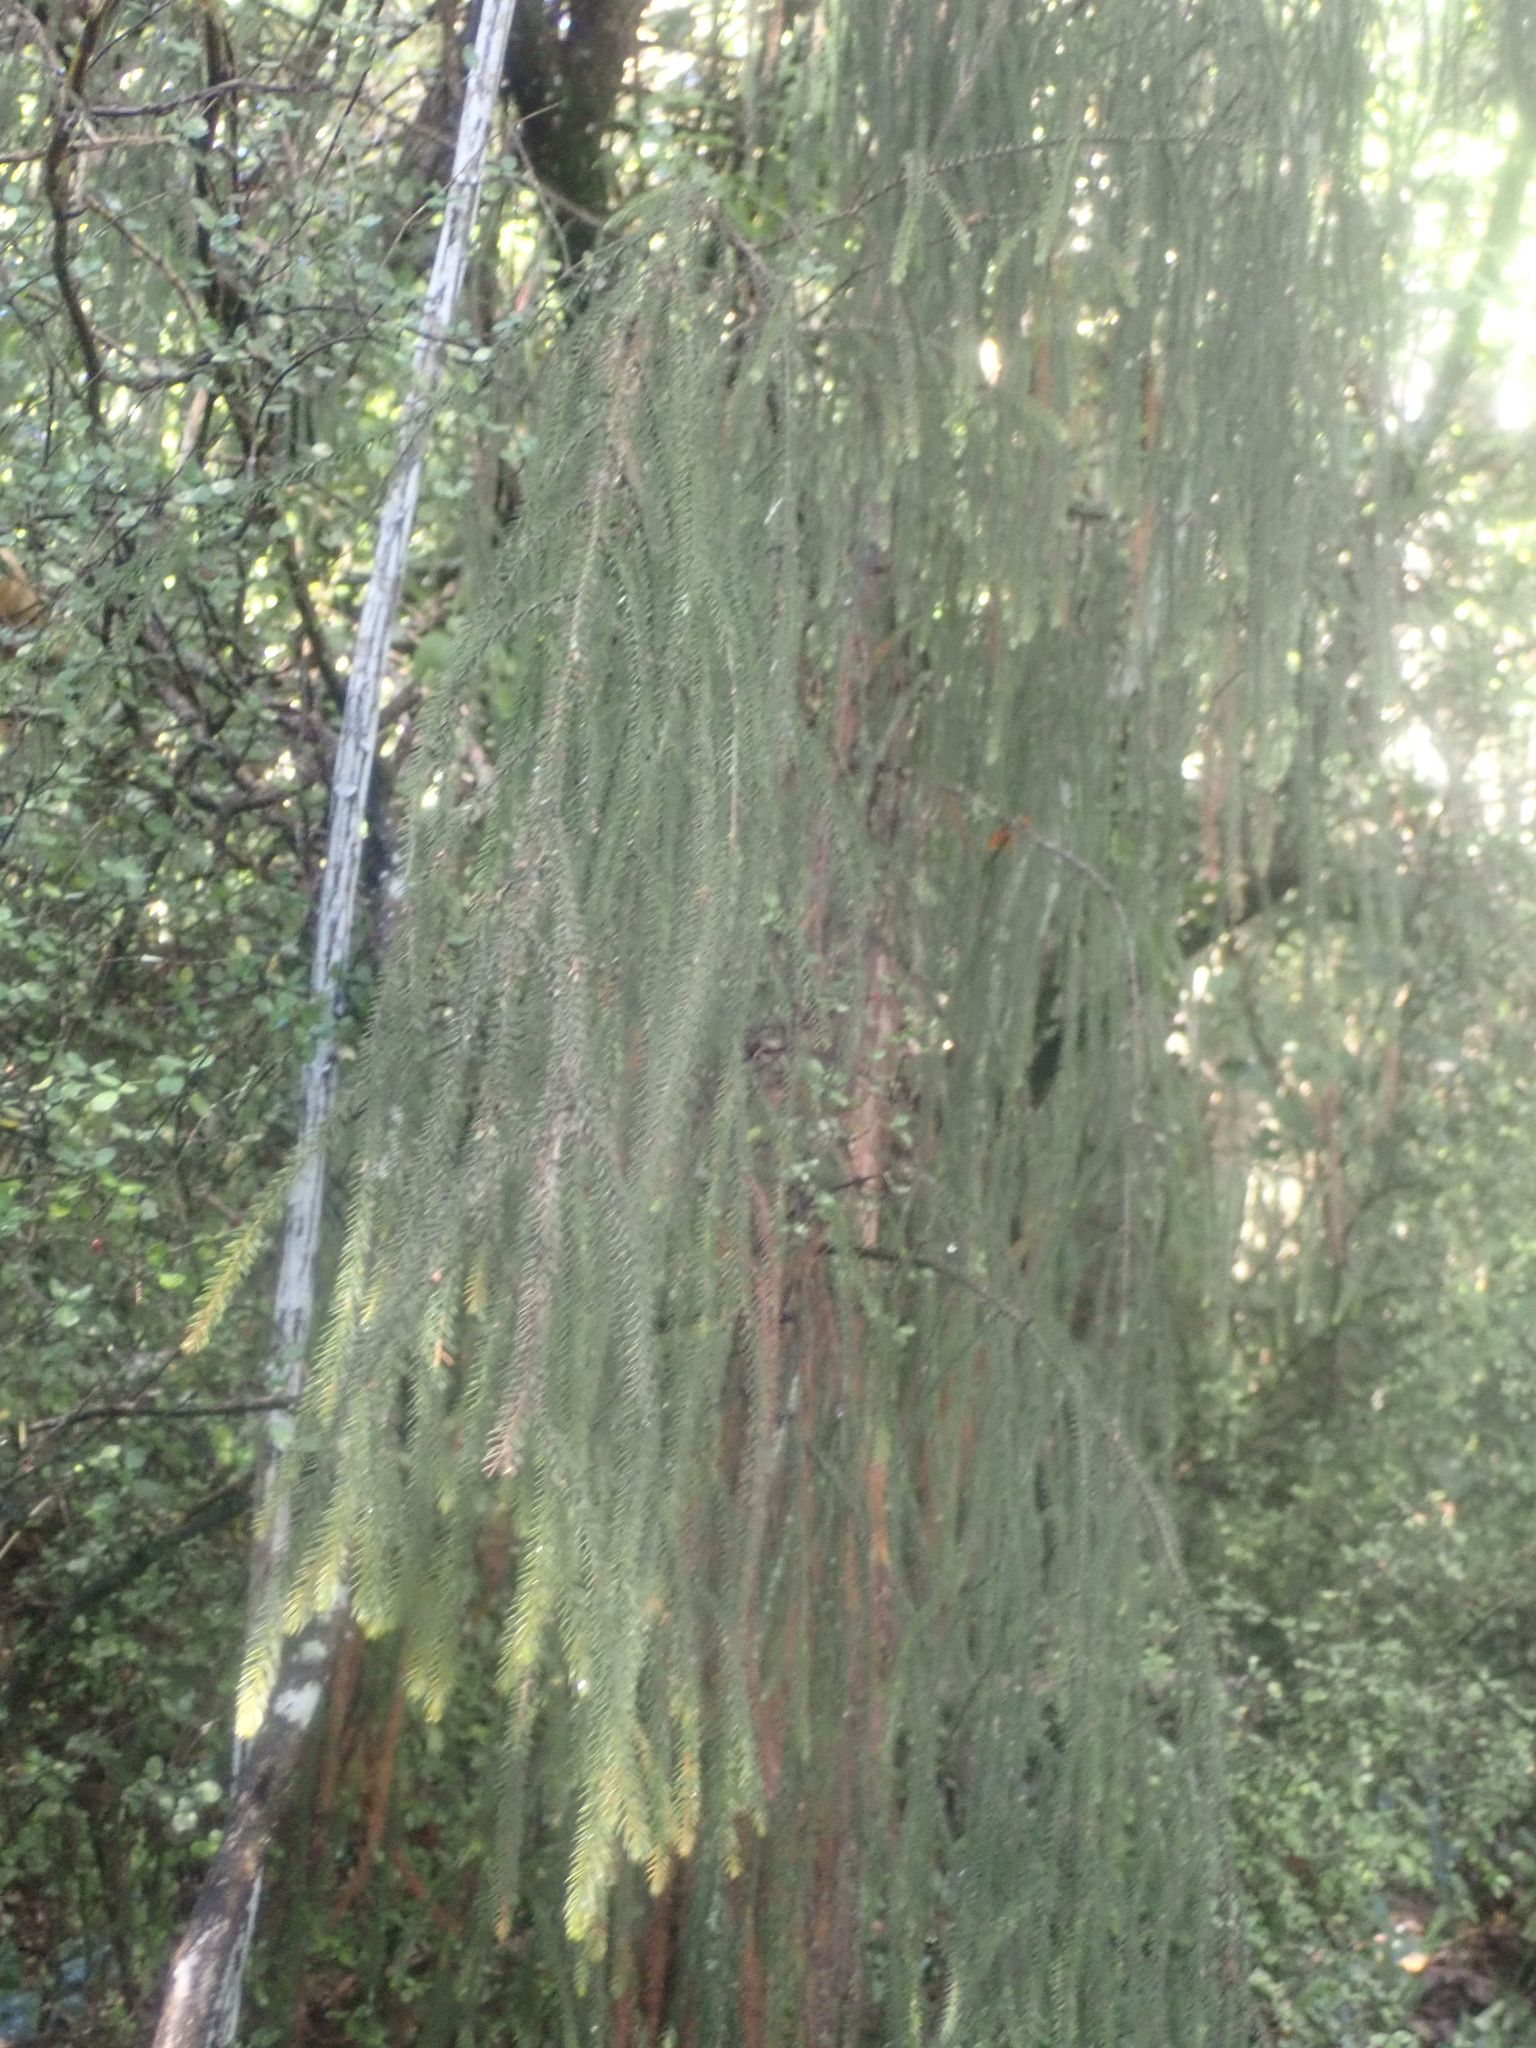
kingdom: Plantae
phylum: Tracheophyta
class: Pinopsida
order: Pinales
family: Podocarpaceae
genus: Dacrydium
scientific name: Dacrydium cupressinum
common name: Red pine
